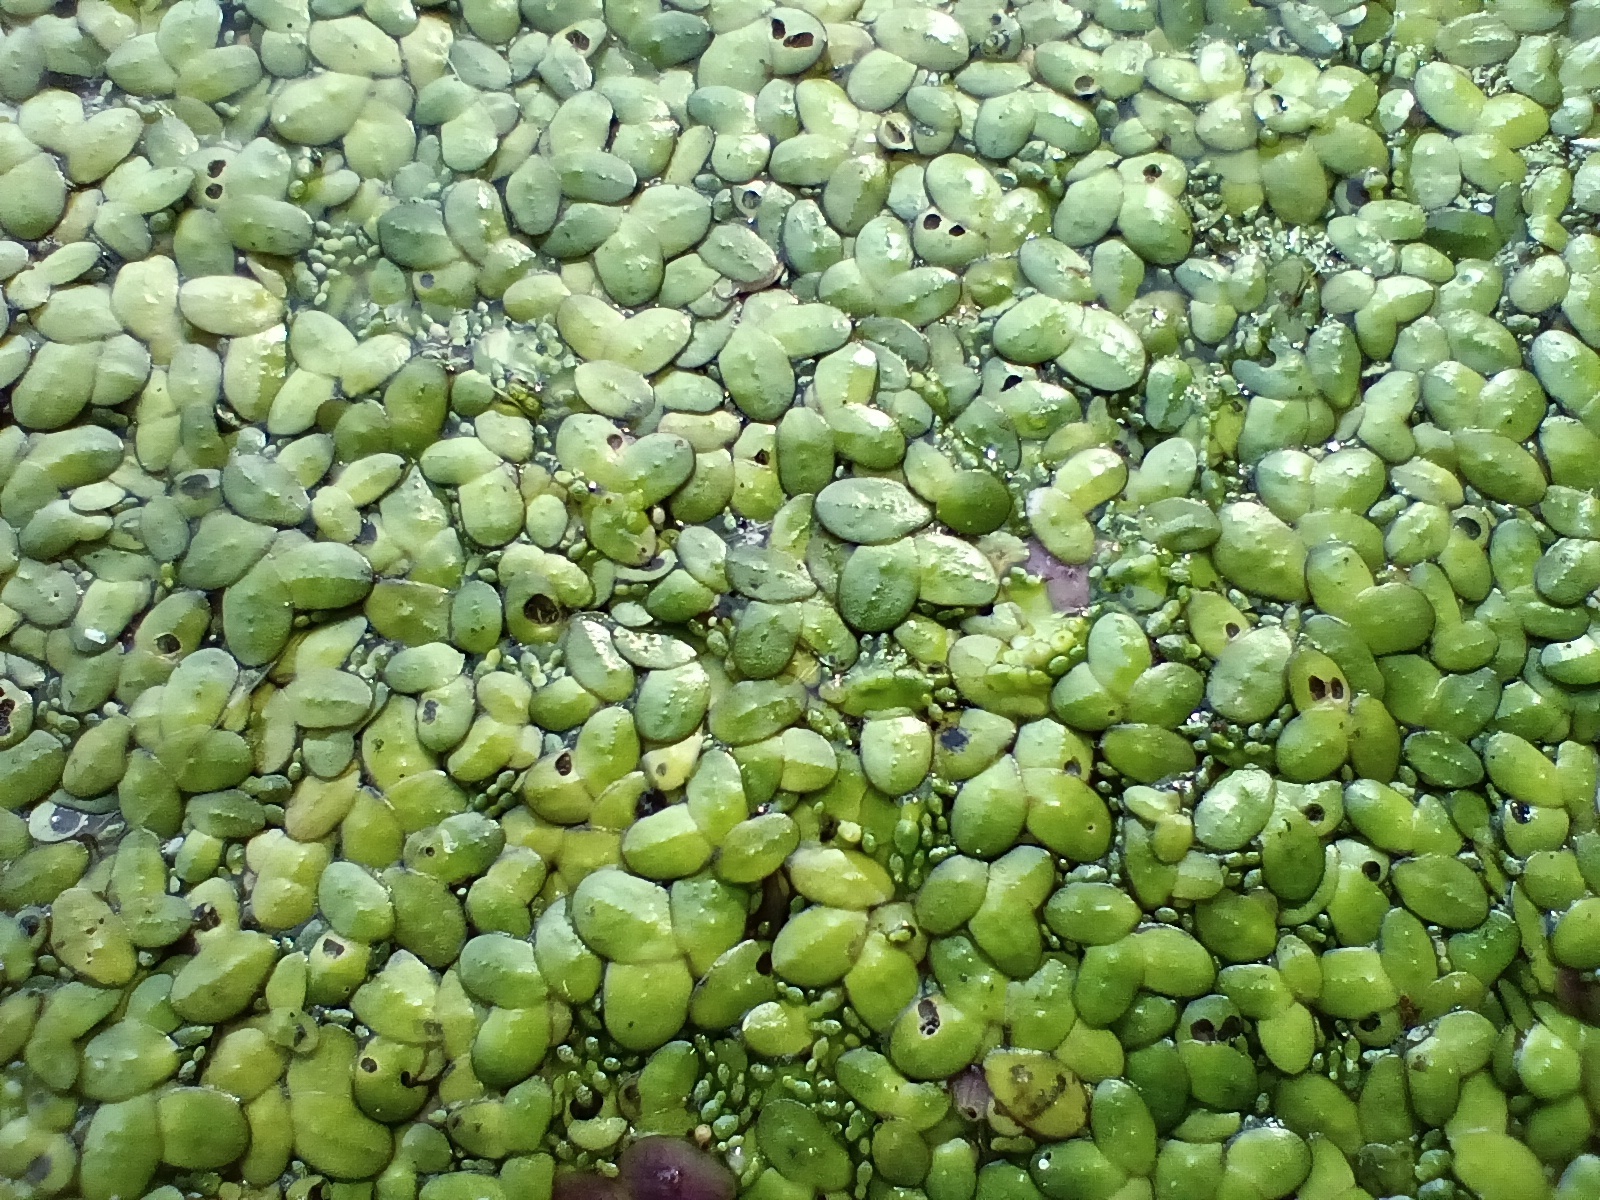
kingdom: Plantae
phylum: Tracheophyta
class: Liliopsida
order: Alismatales
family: Araceae
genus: Lemna
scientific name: Lemna minor
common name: Common duckweed
